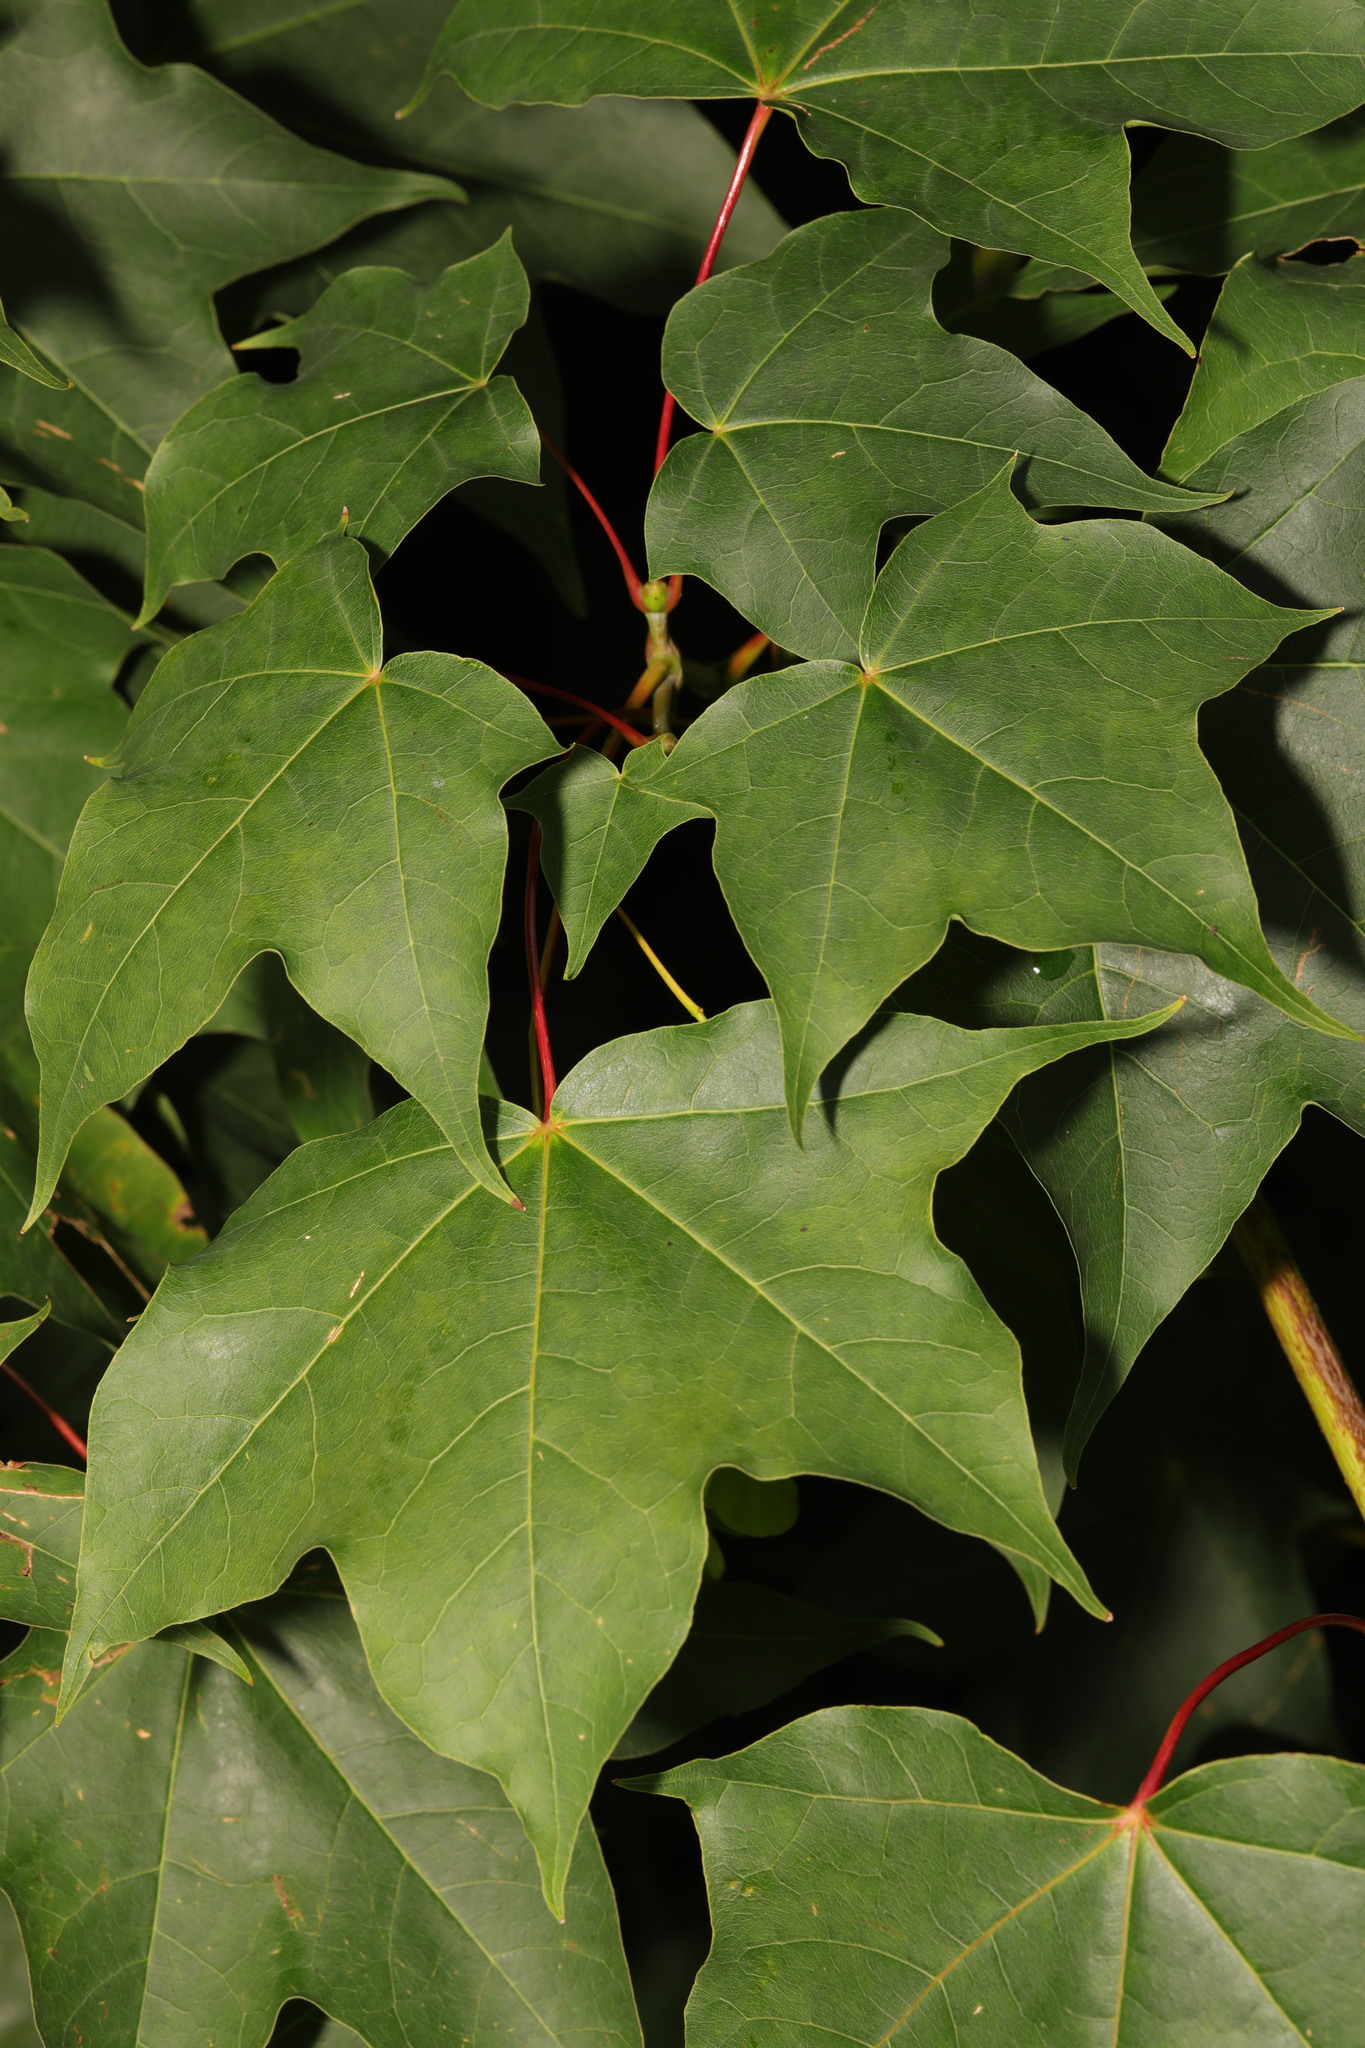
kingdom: Plantae
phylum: Tracheophyta
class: Magnoliopsida
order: Sapindales
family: Sapindaceae
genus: Acer
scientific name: Acer cappadocicum
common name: Cappadocian maple
